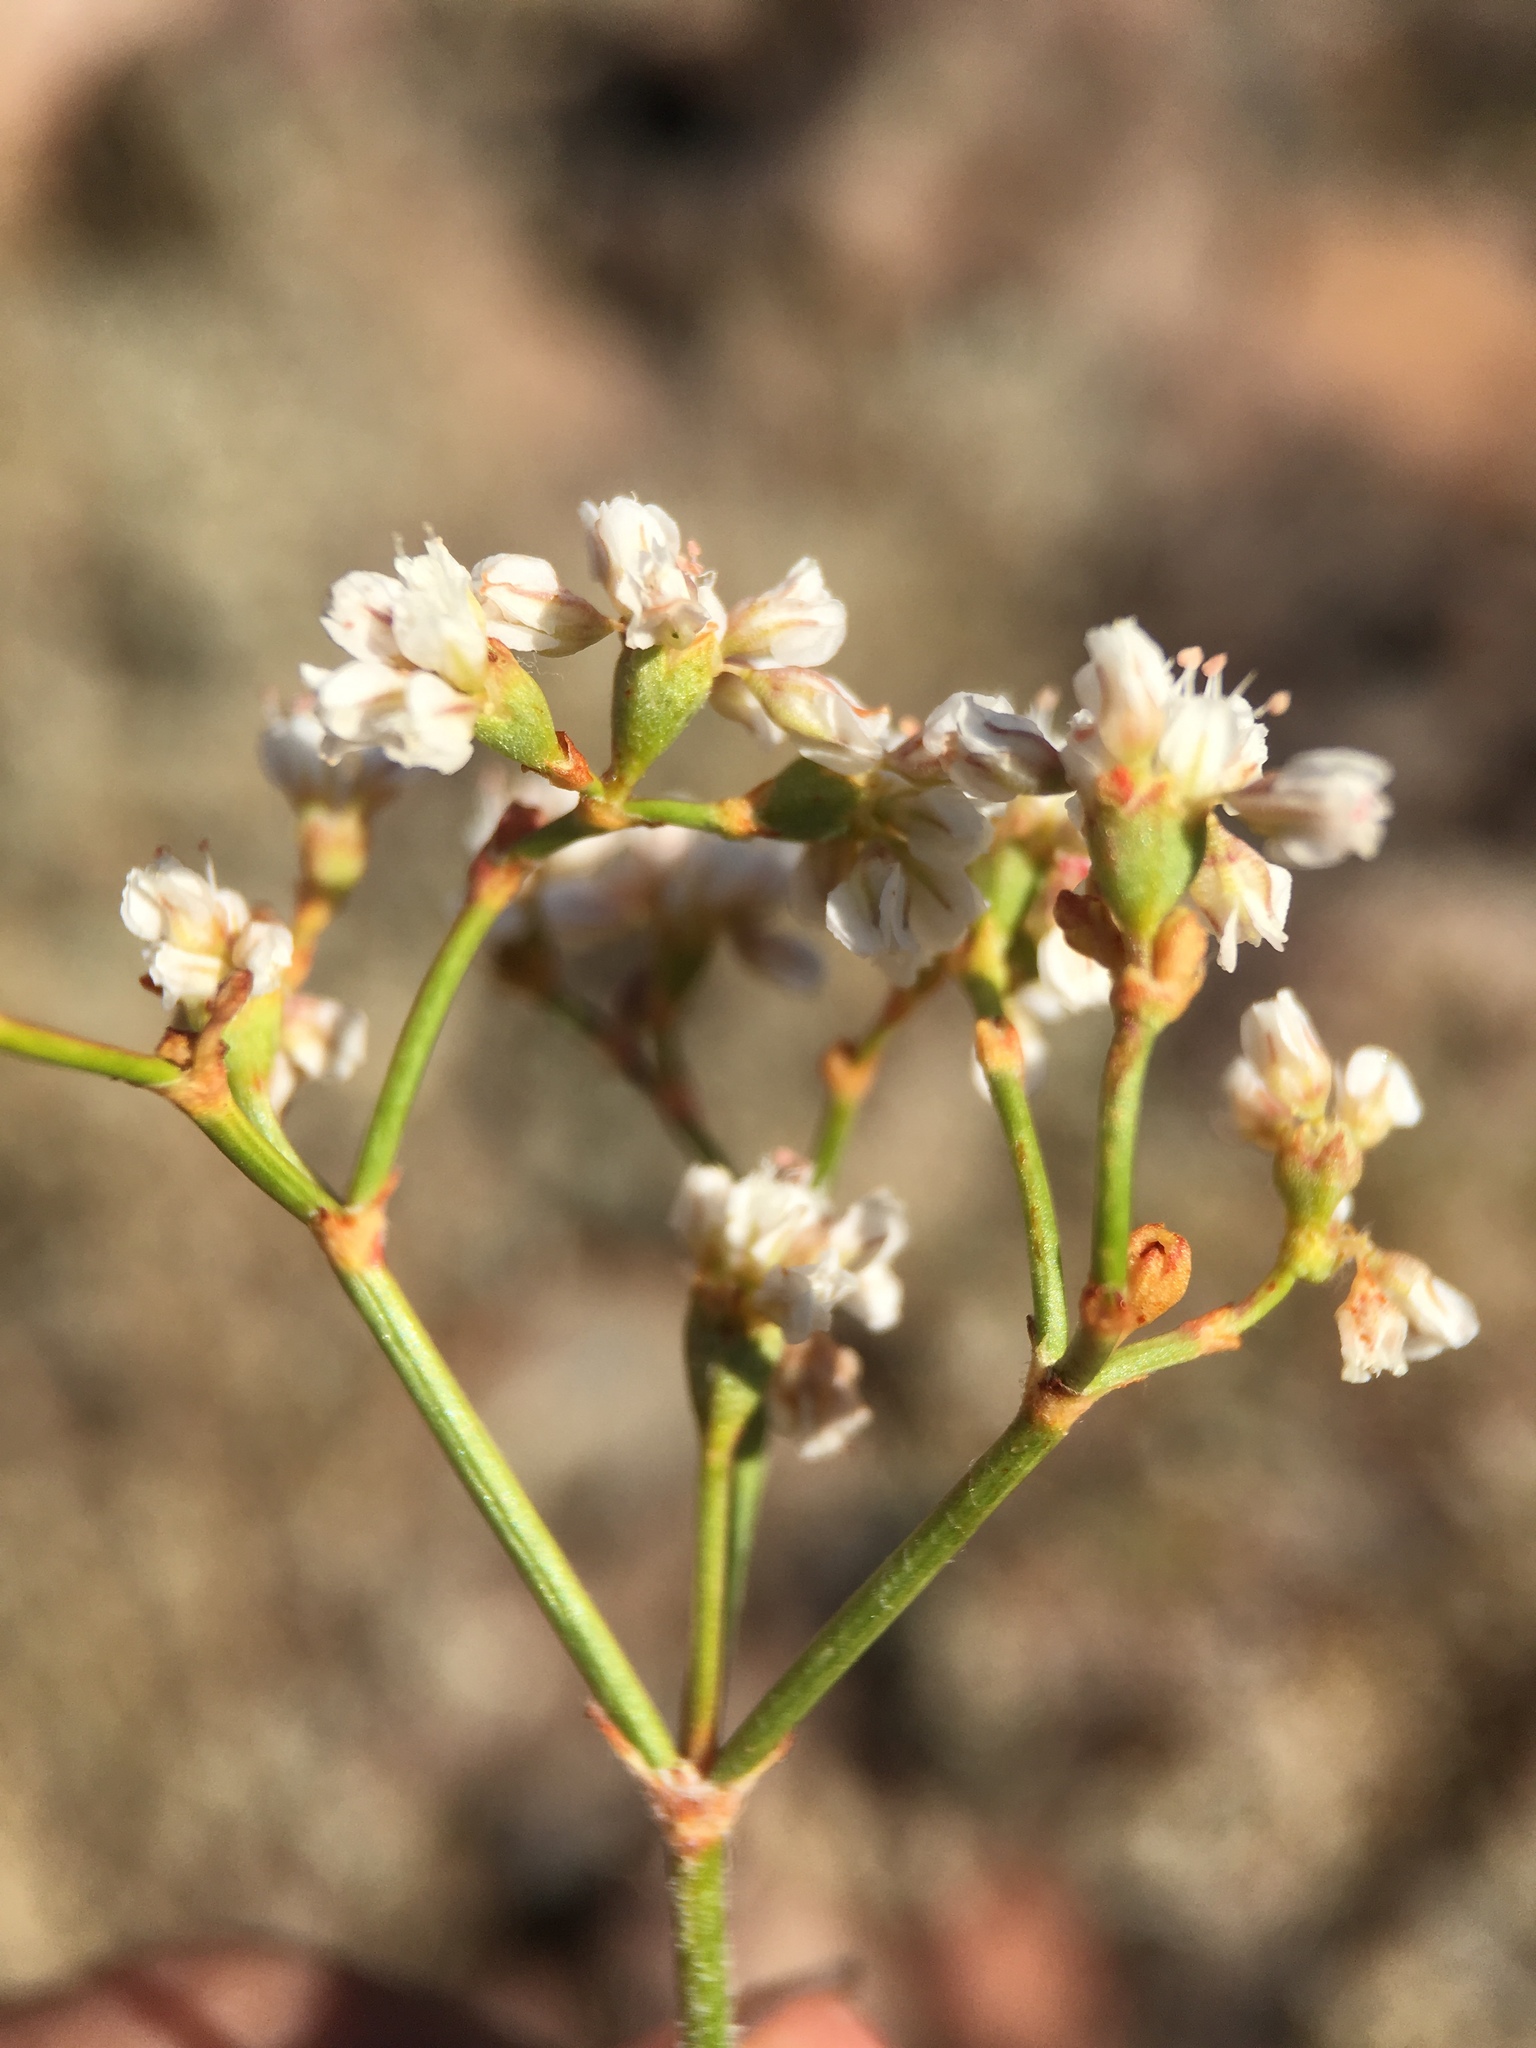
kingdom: Plantae
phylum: Tracheophyta
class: Magnoliopsida
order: Caryophyllales
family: Polygonaceae
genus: Eriogonum
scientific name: Eriogonum microtheca
